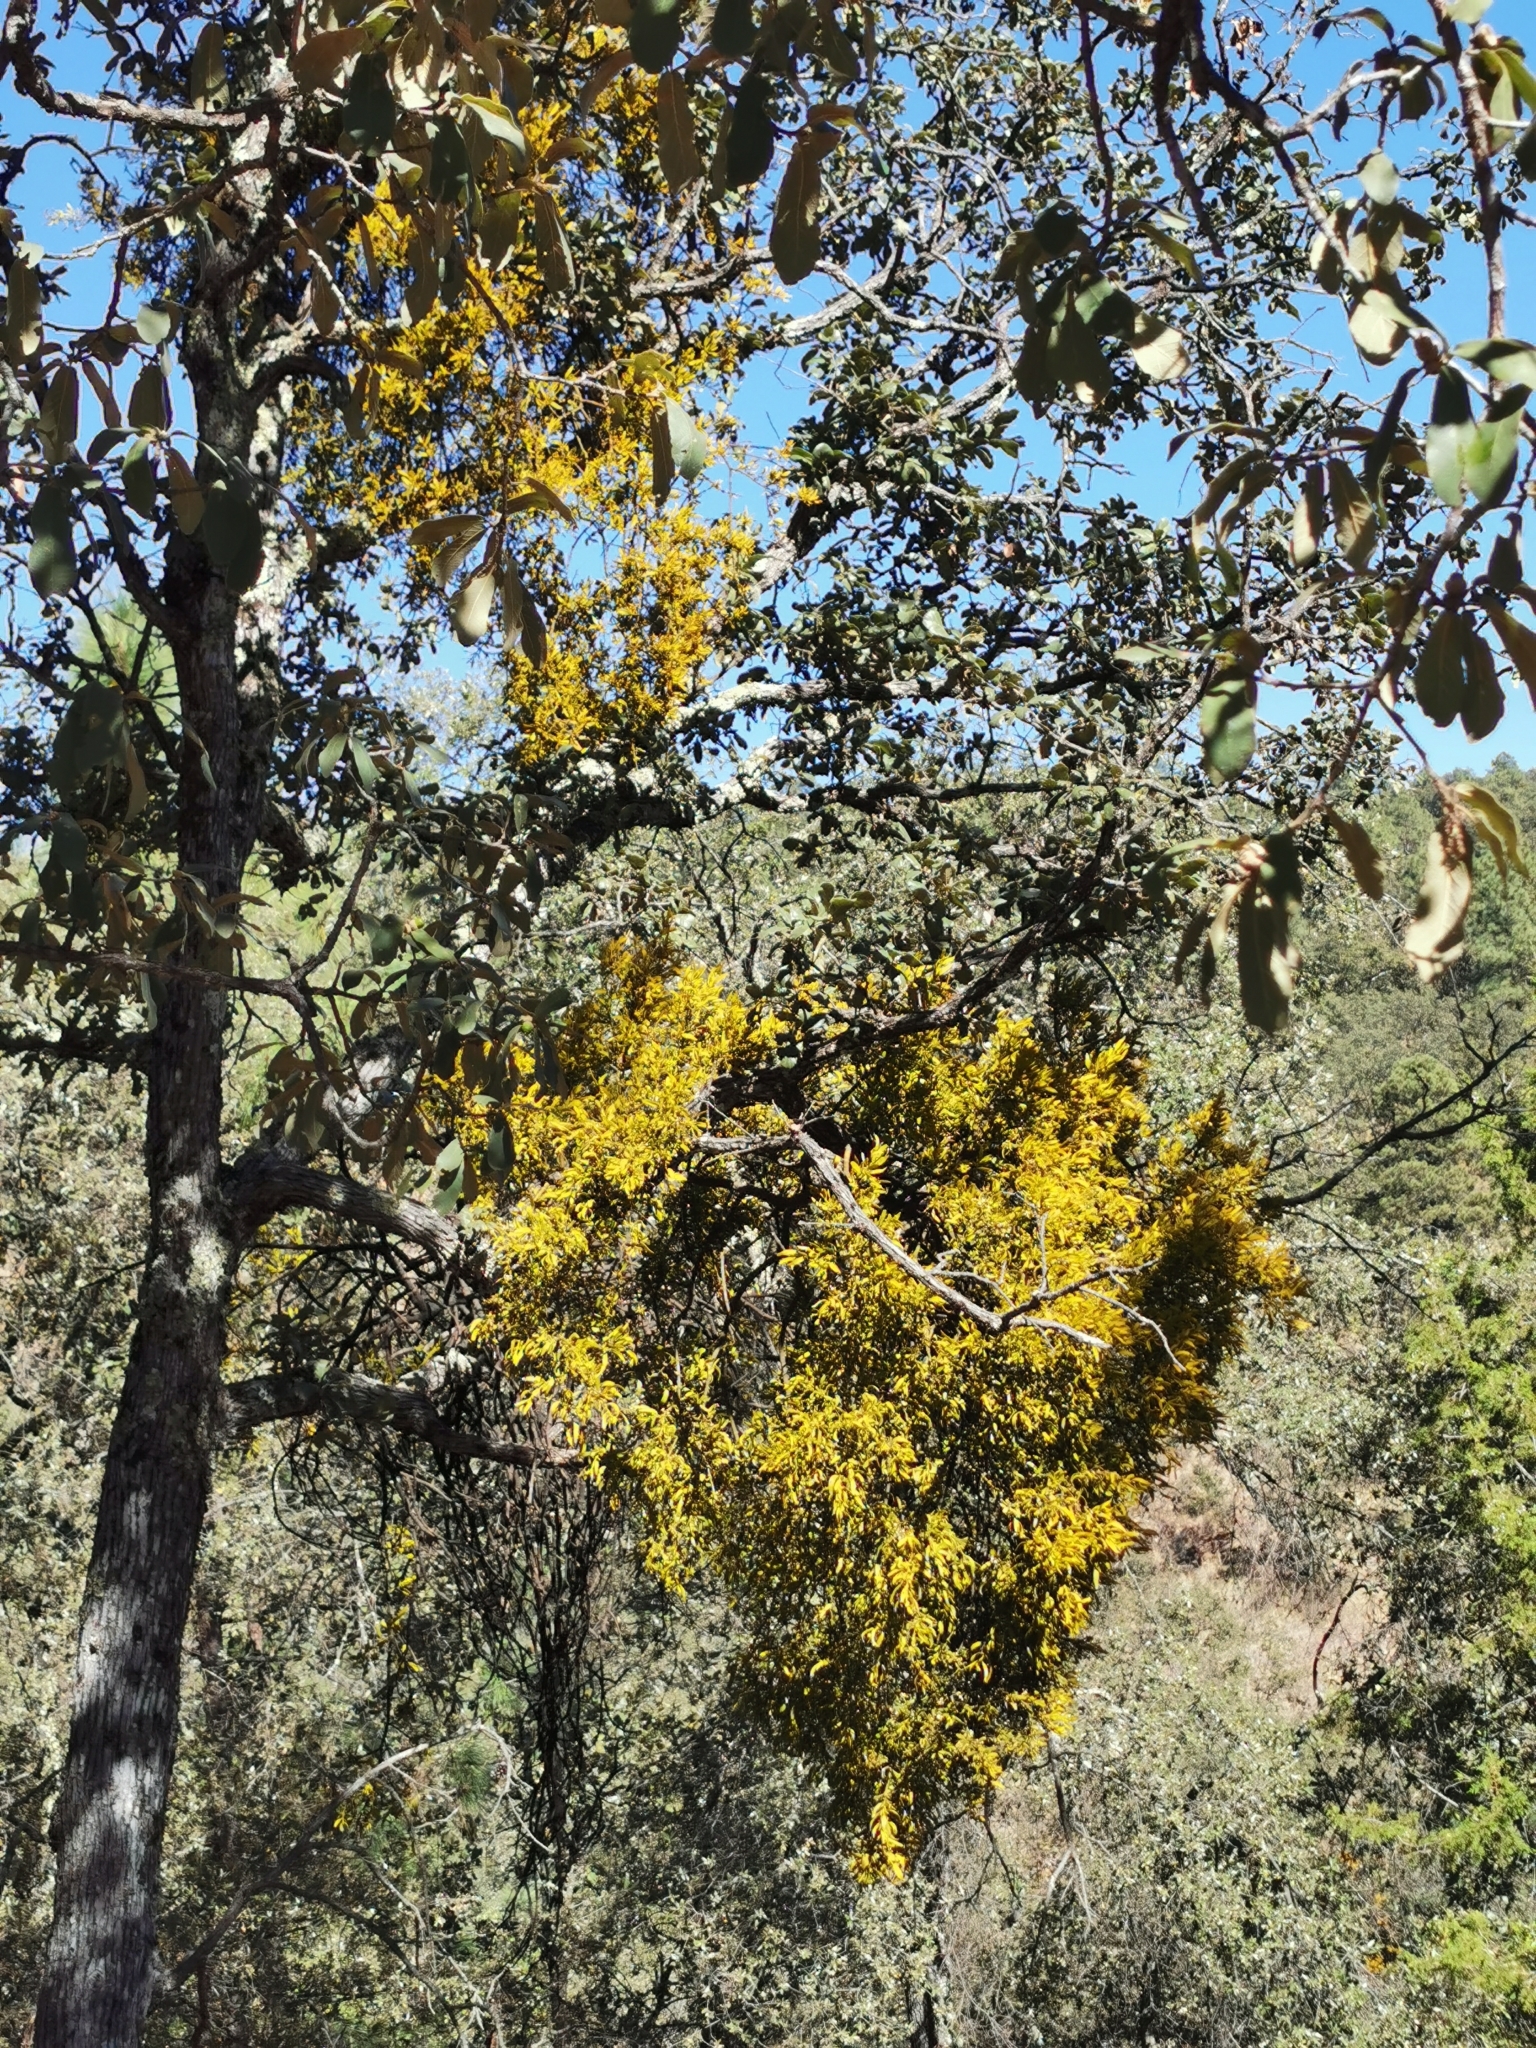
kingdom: Plantae
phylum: Tracheophyta
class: Magnoliopsida
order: Santalales
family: Viscaceae
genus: Phoradendron
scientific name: Phoradendron leucarpum
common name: Pacific mistletoe
